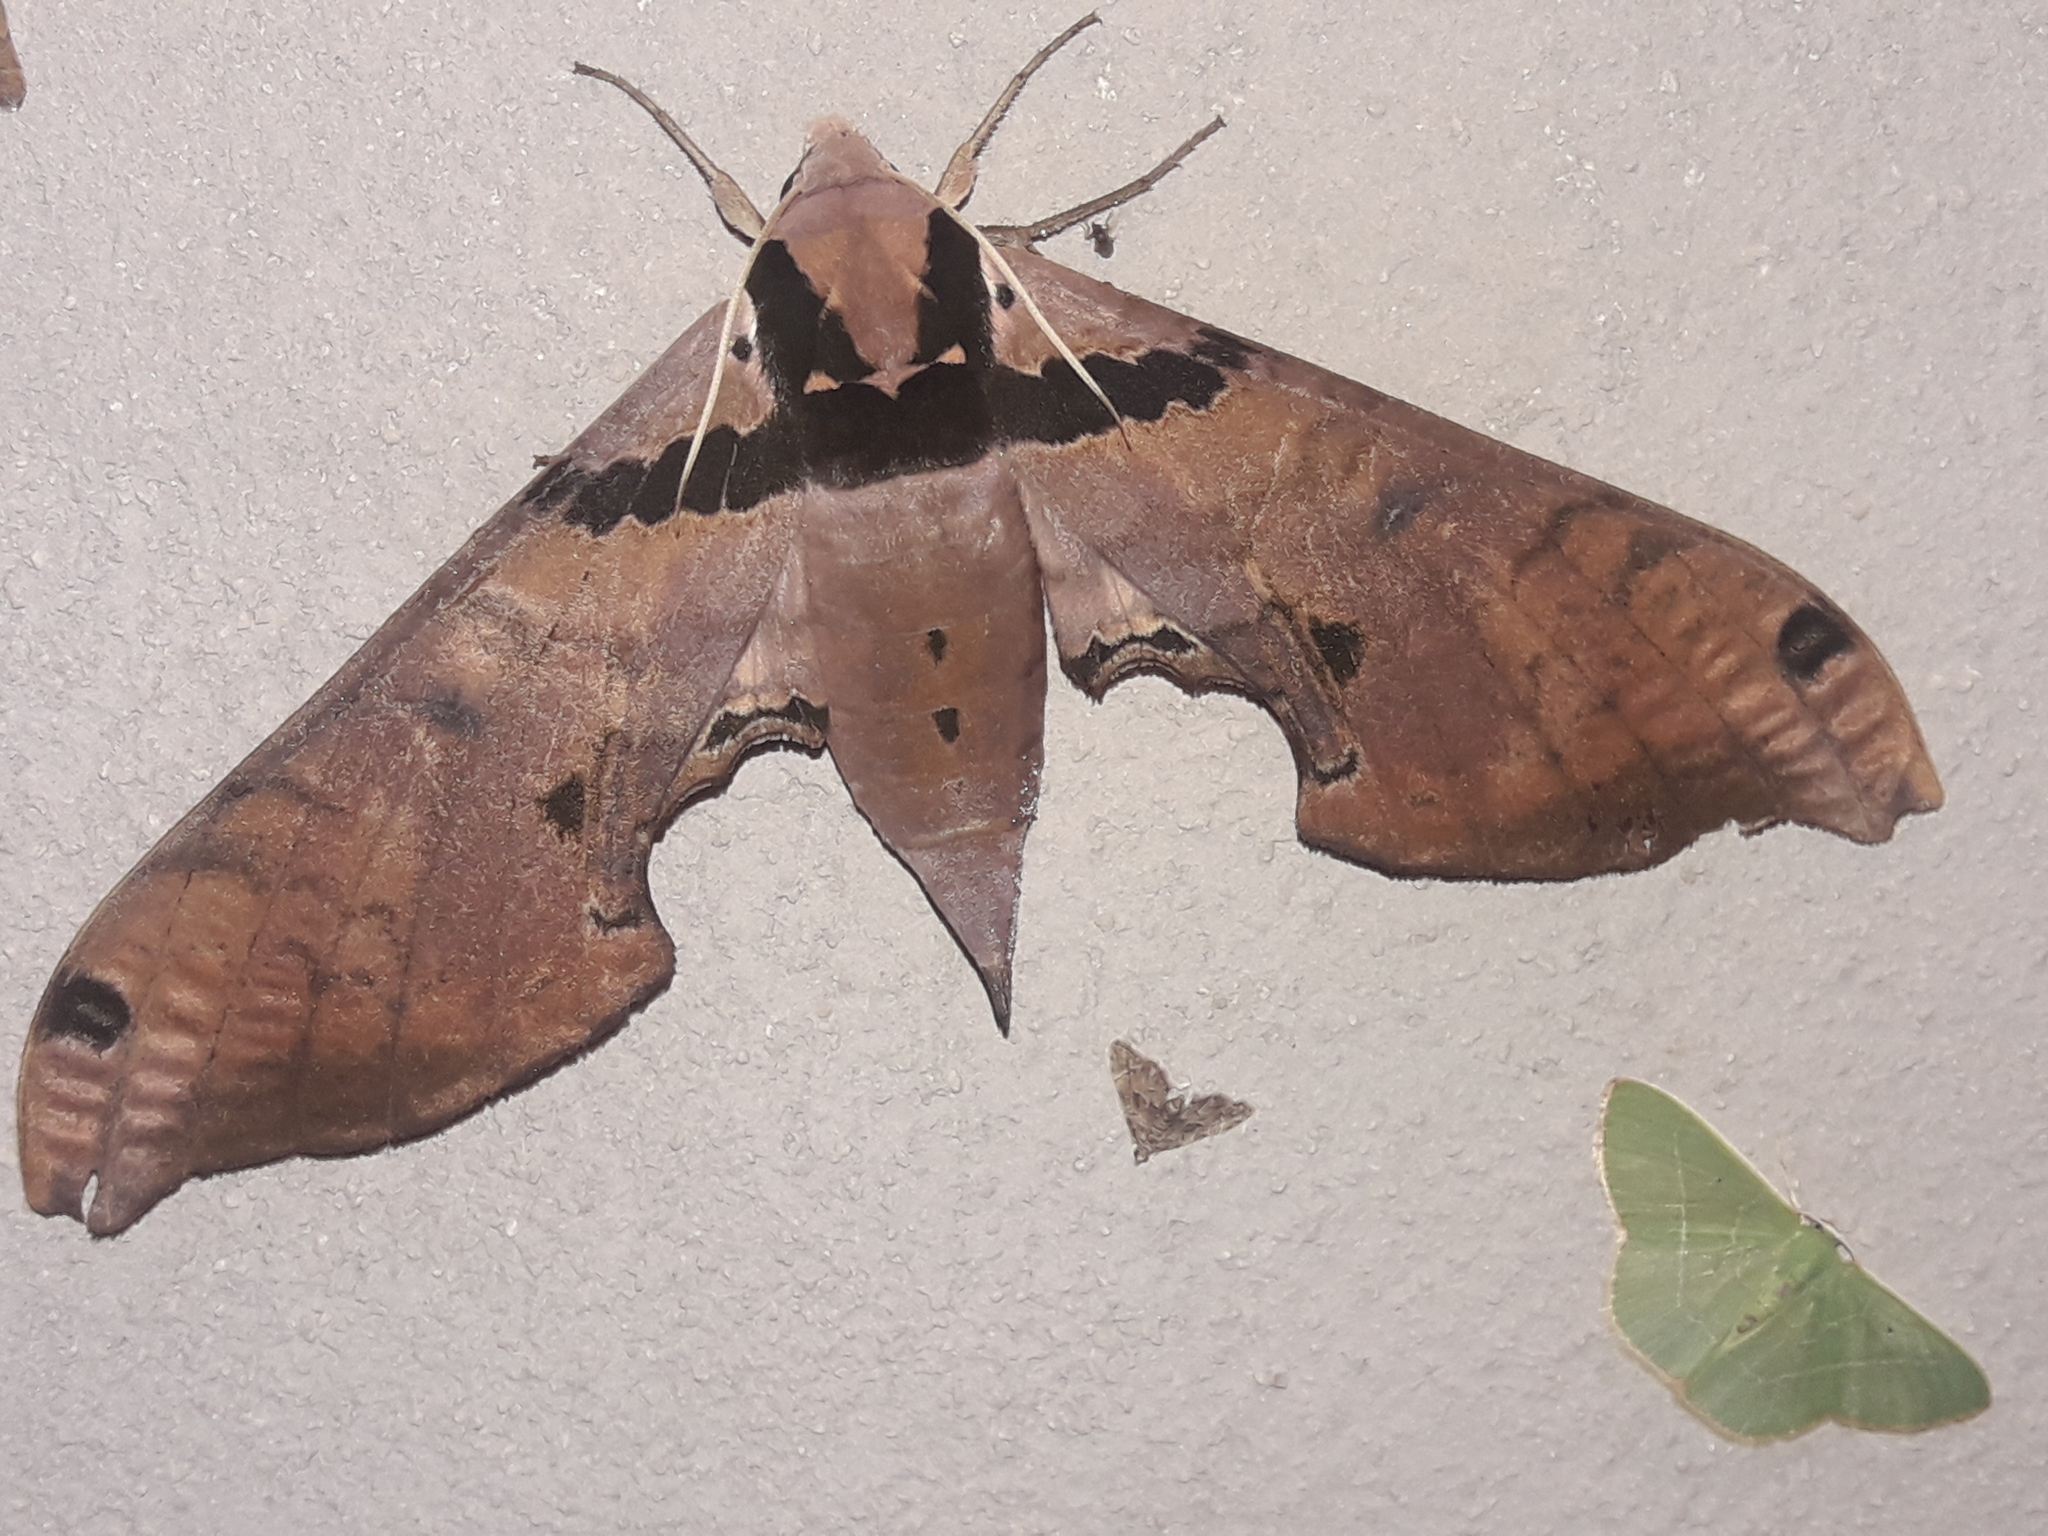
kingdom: Animalia
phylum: Arthropoda
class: Insecta
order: Lepidoptera
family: Sphingidae
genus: Adhemarius
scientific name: Adhemarius gannascus
